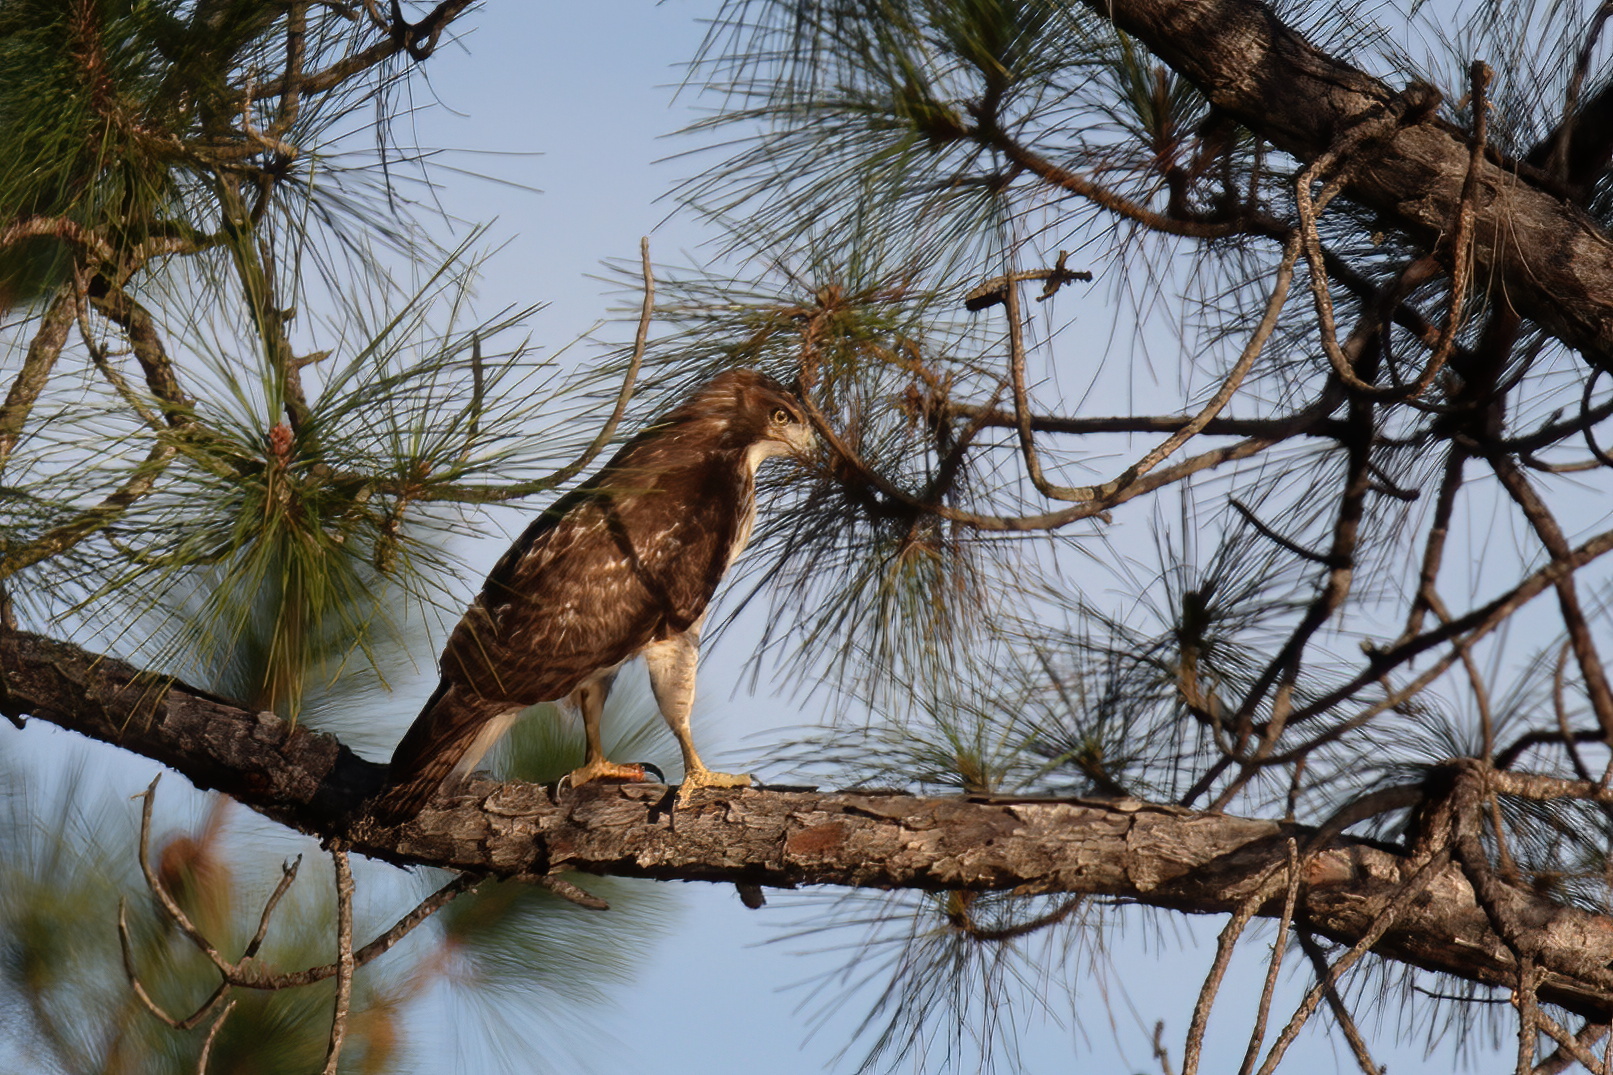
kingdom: Animalia
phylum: Chordata
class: Aves
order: Accipitriformes
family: Accipitridae
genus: Buteo
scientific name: Buteo jamaicensis
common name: Red-tailed hawk
